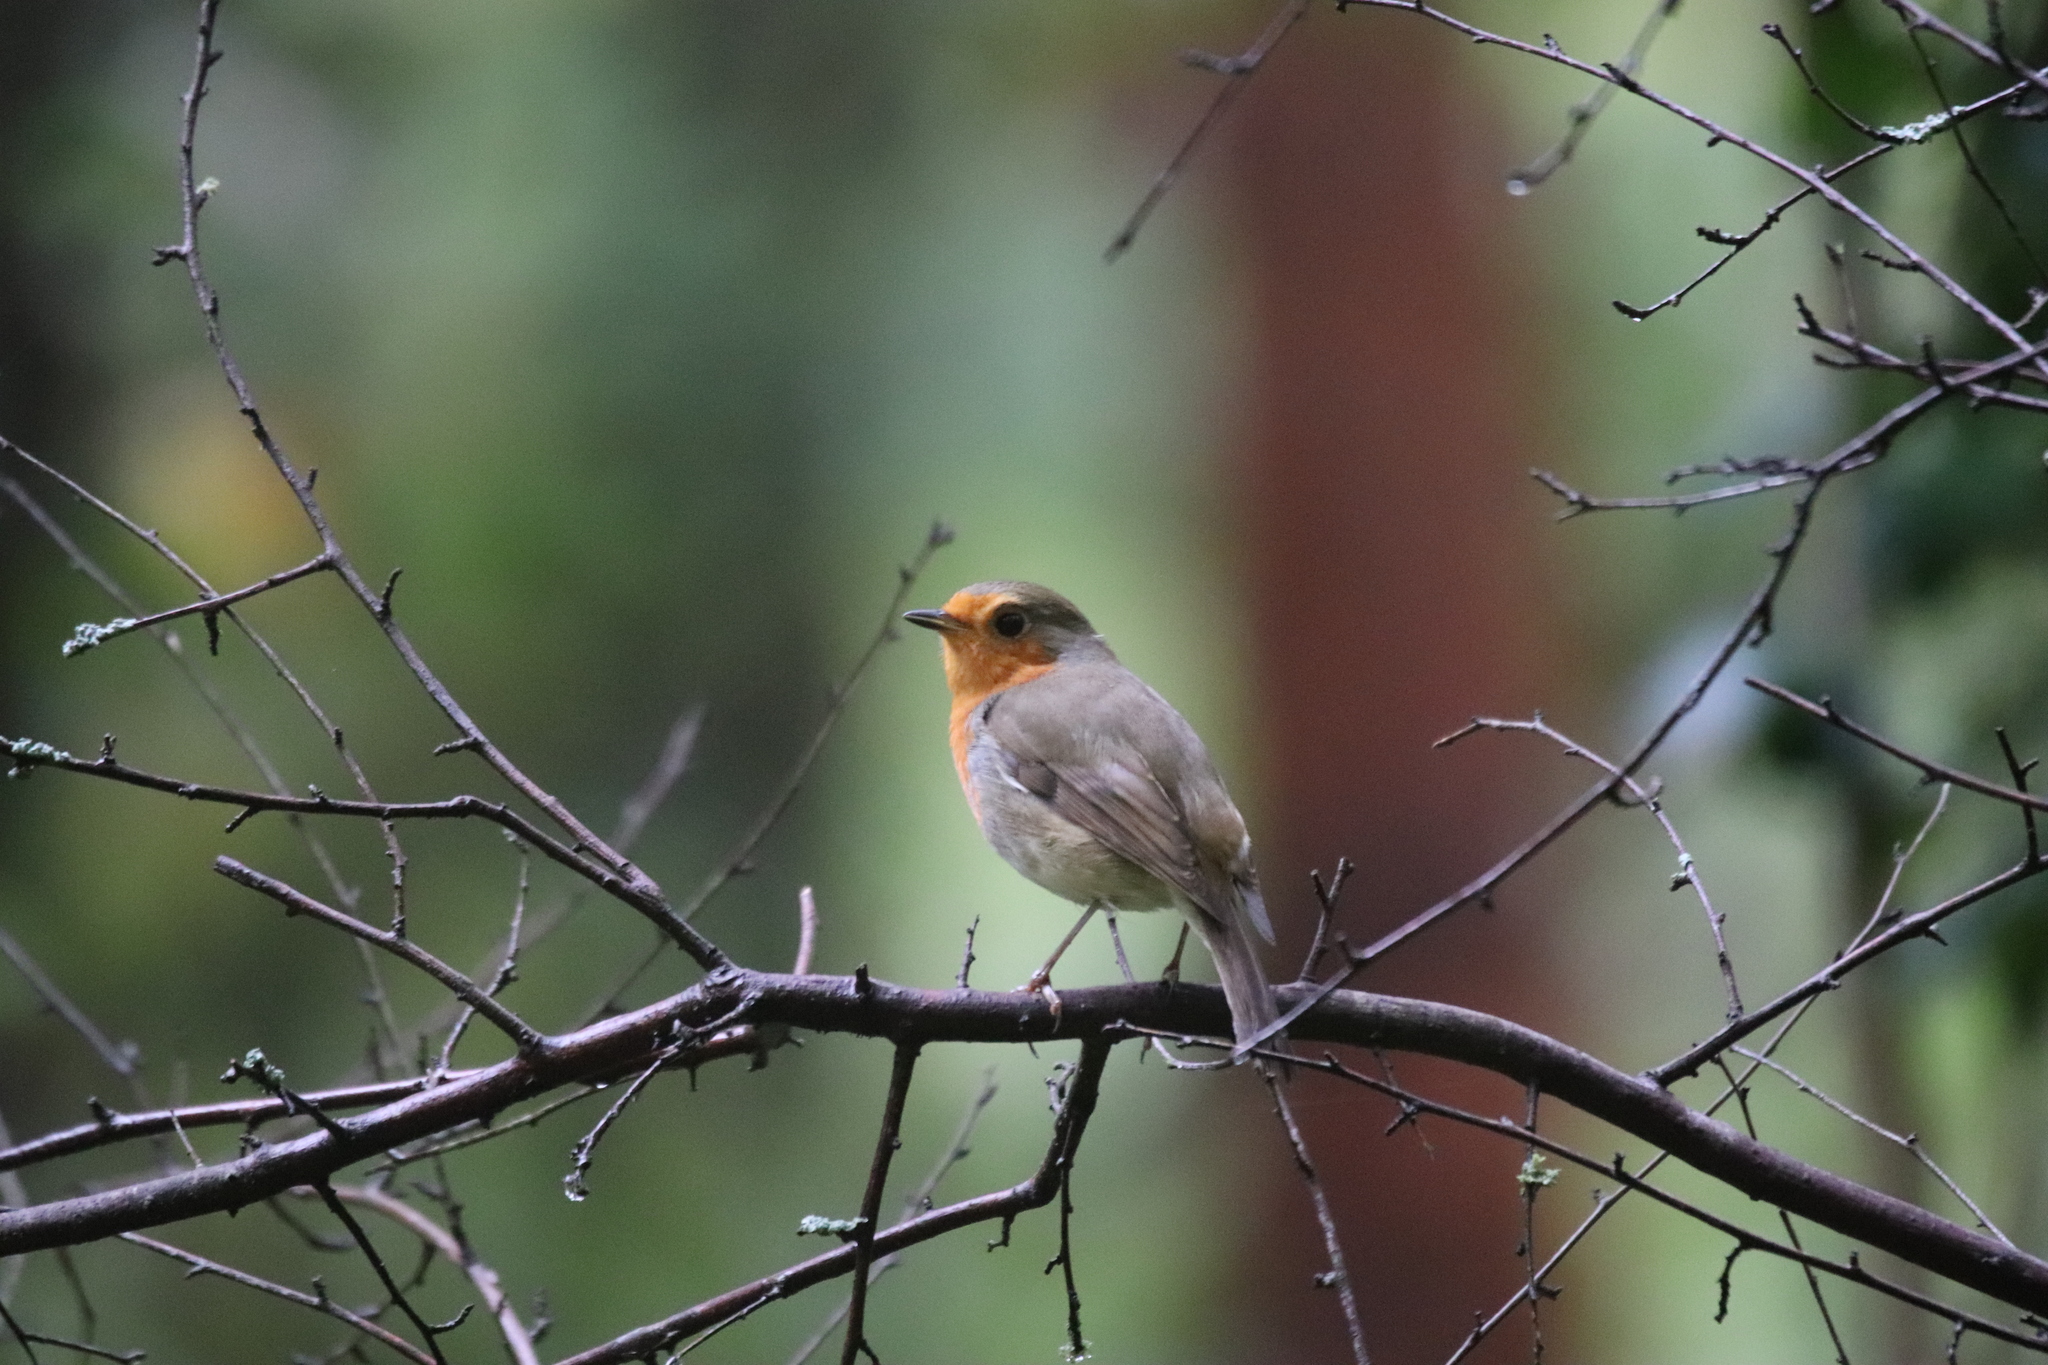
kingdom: Animalia
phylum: Chordata
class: Aves
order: Passeriformes
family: Muscicapidae
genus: Erithacus
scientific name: Erithacus rubecula
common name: European robin
